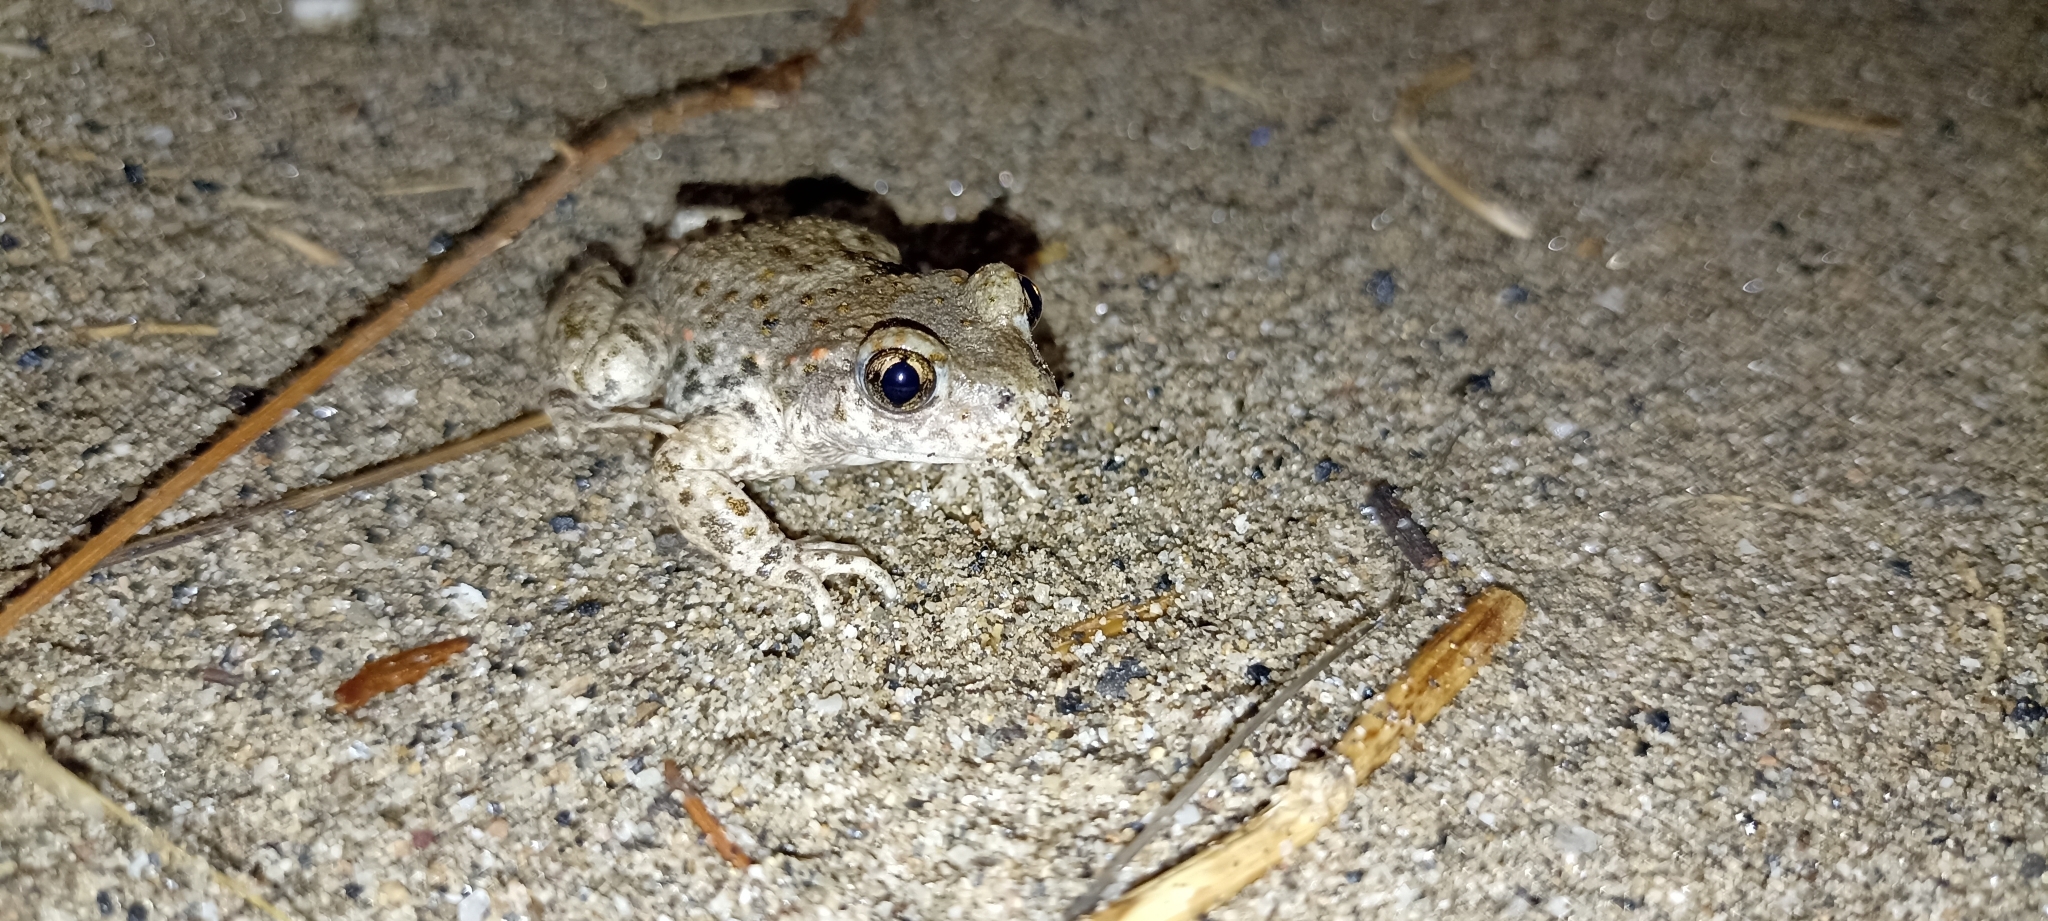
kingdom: Animalia
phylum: Chordata
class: Amphibia
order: Anura
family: Alytidae
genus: Alytes
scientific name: Alytes obstetricans
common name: Midwife toad
